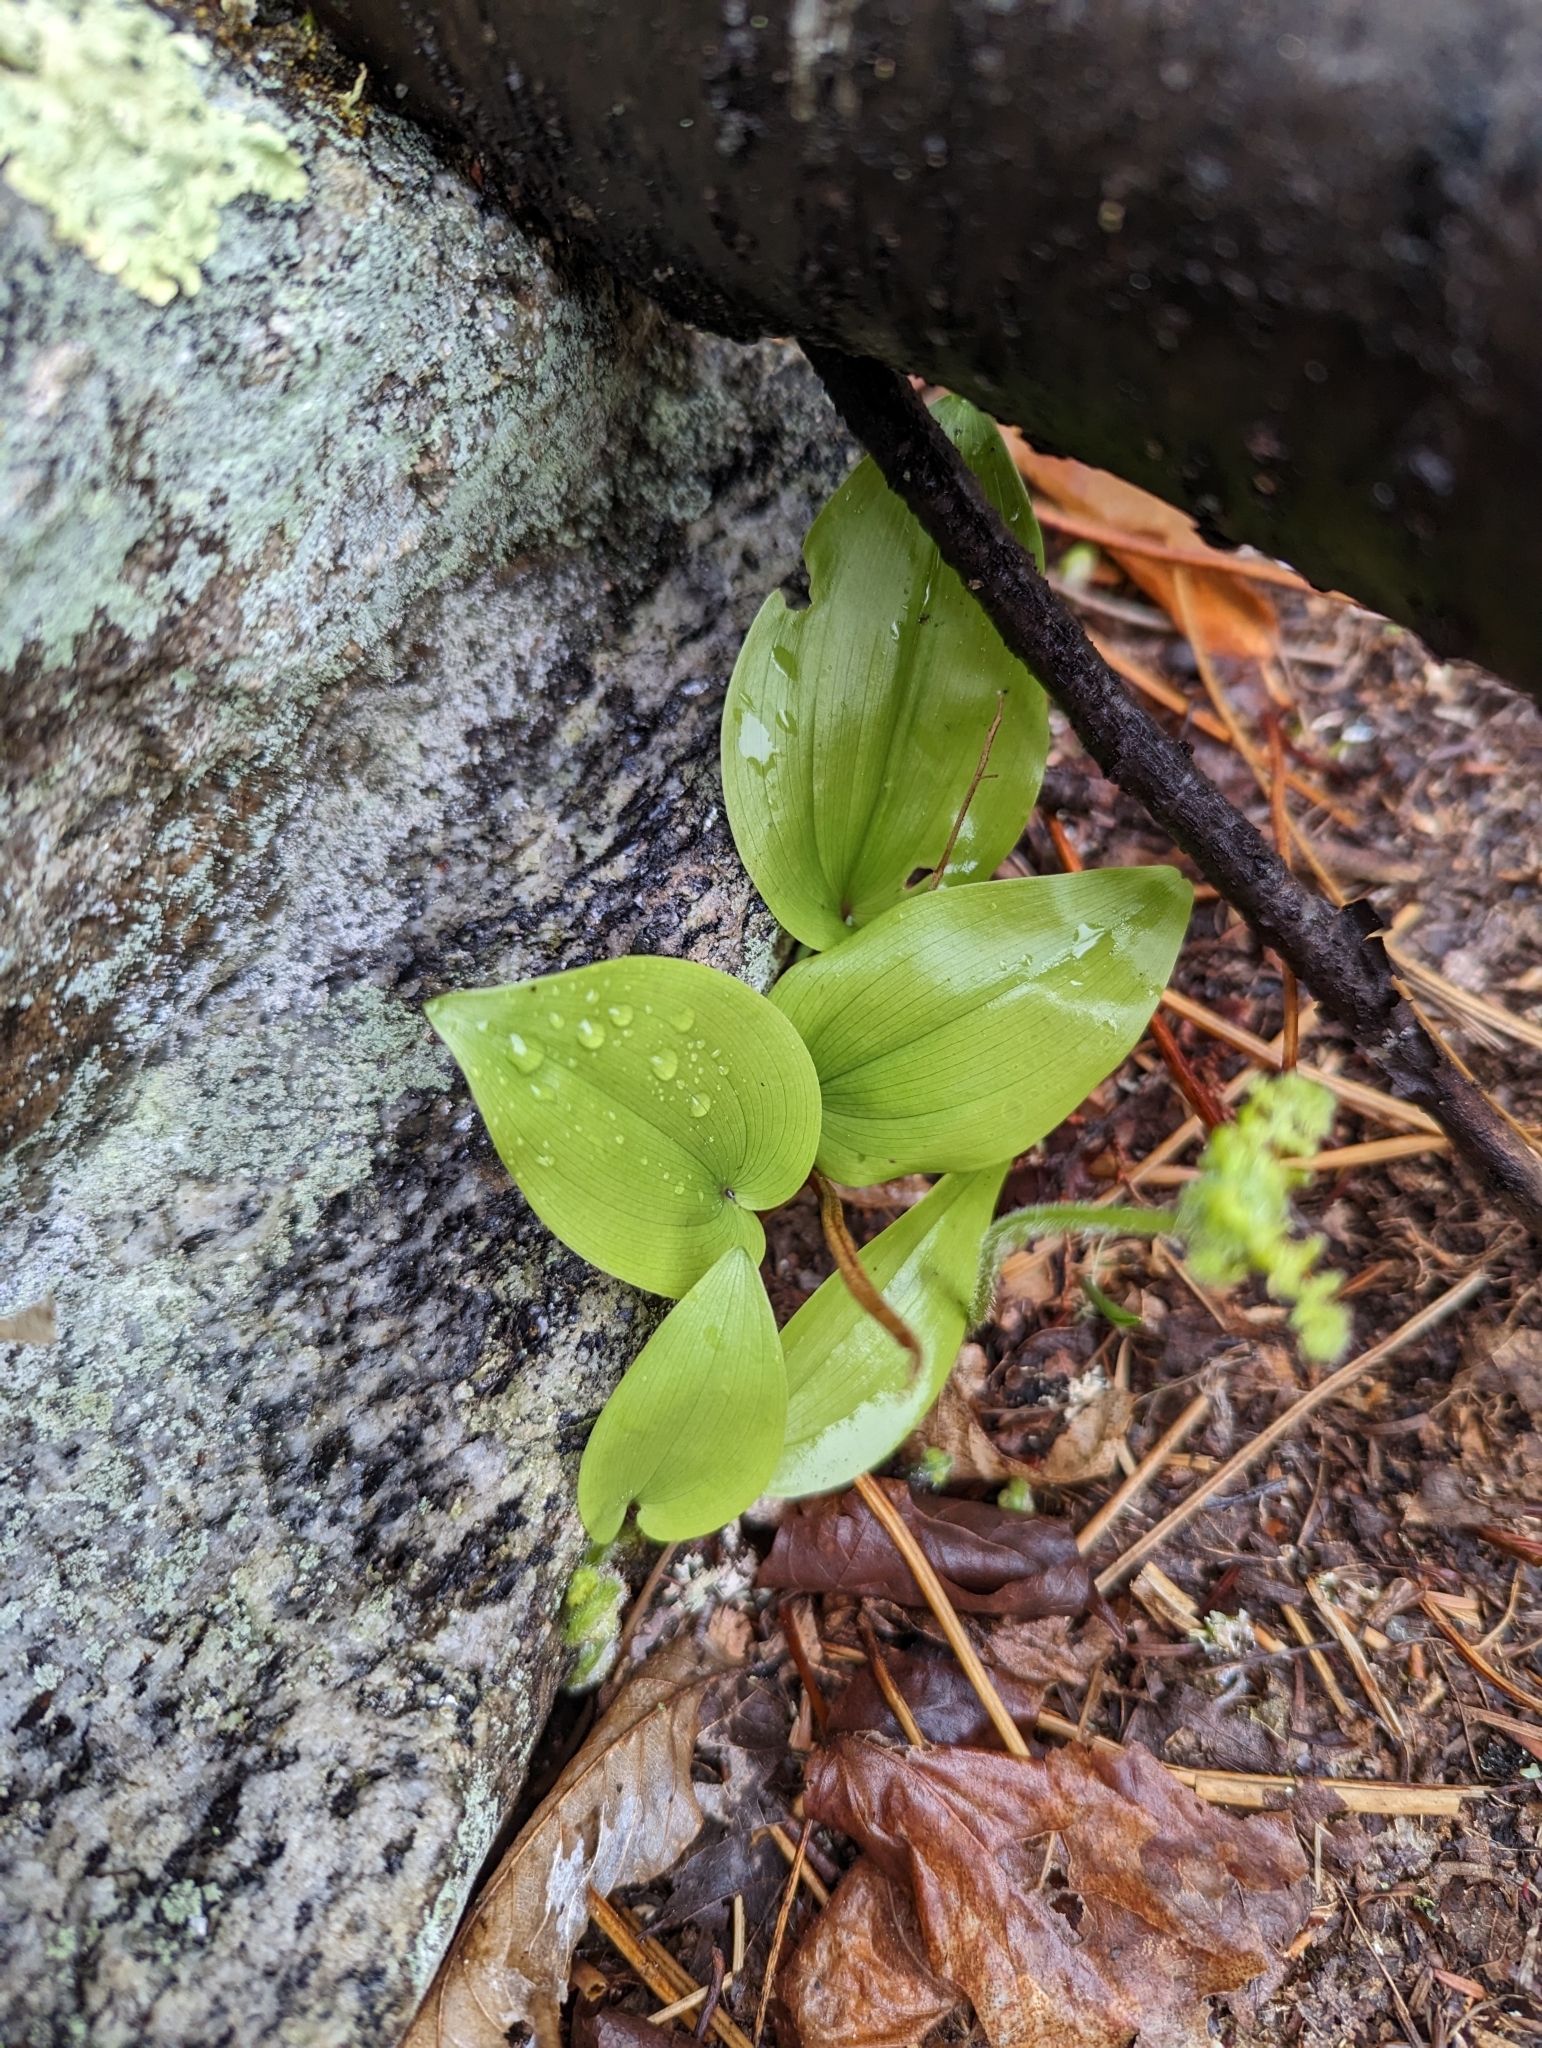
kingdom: Plantae
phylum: Tracheophyta
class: Liliopsida
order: Asparagales
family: Asparagaceae
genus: Maianthemum
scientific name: Maianthemum canadense
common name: False lily-of-the-valley
